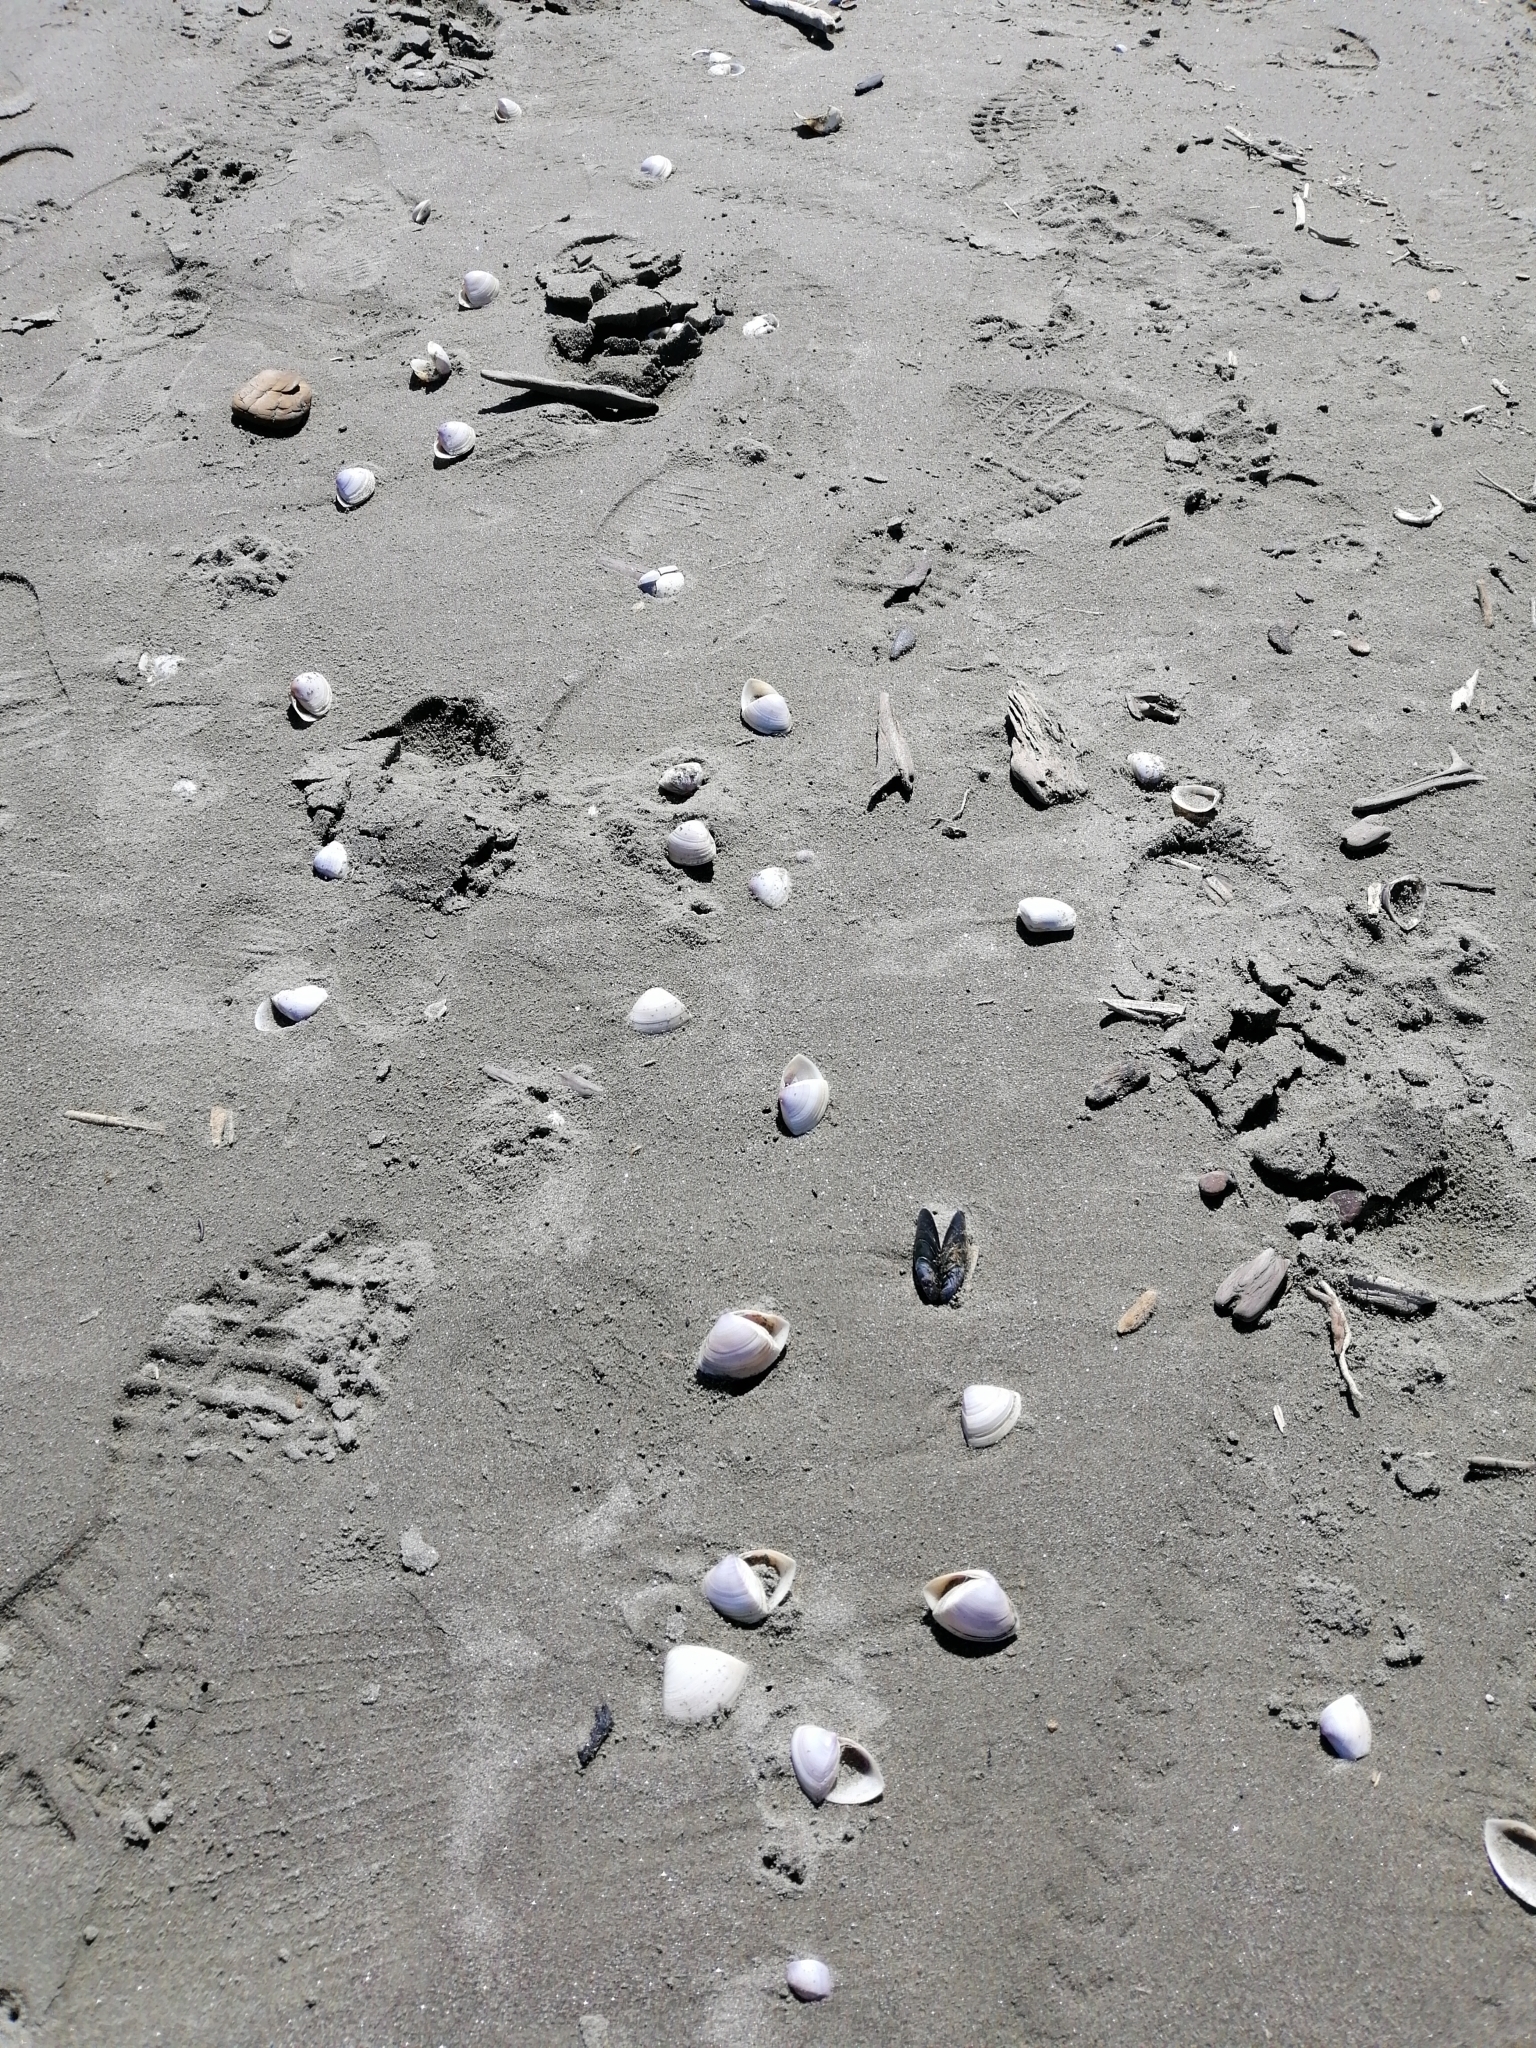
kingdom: Animalia
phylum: Mollusca
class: Bivalvia
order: Venerida
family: Mactridae
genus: Crassula
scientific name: Crassula aequilatera
